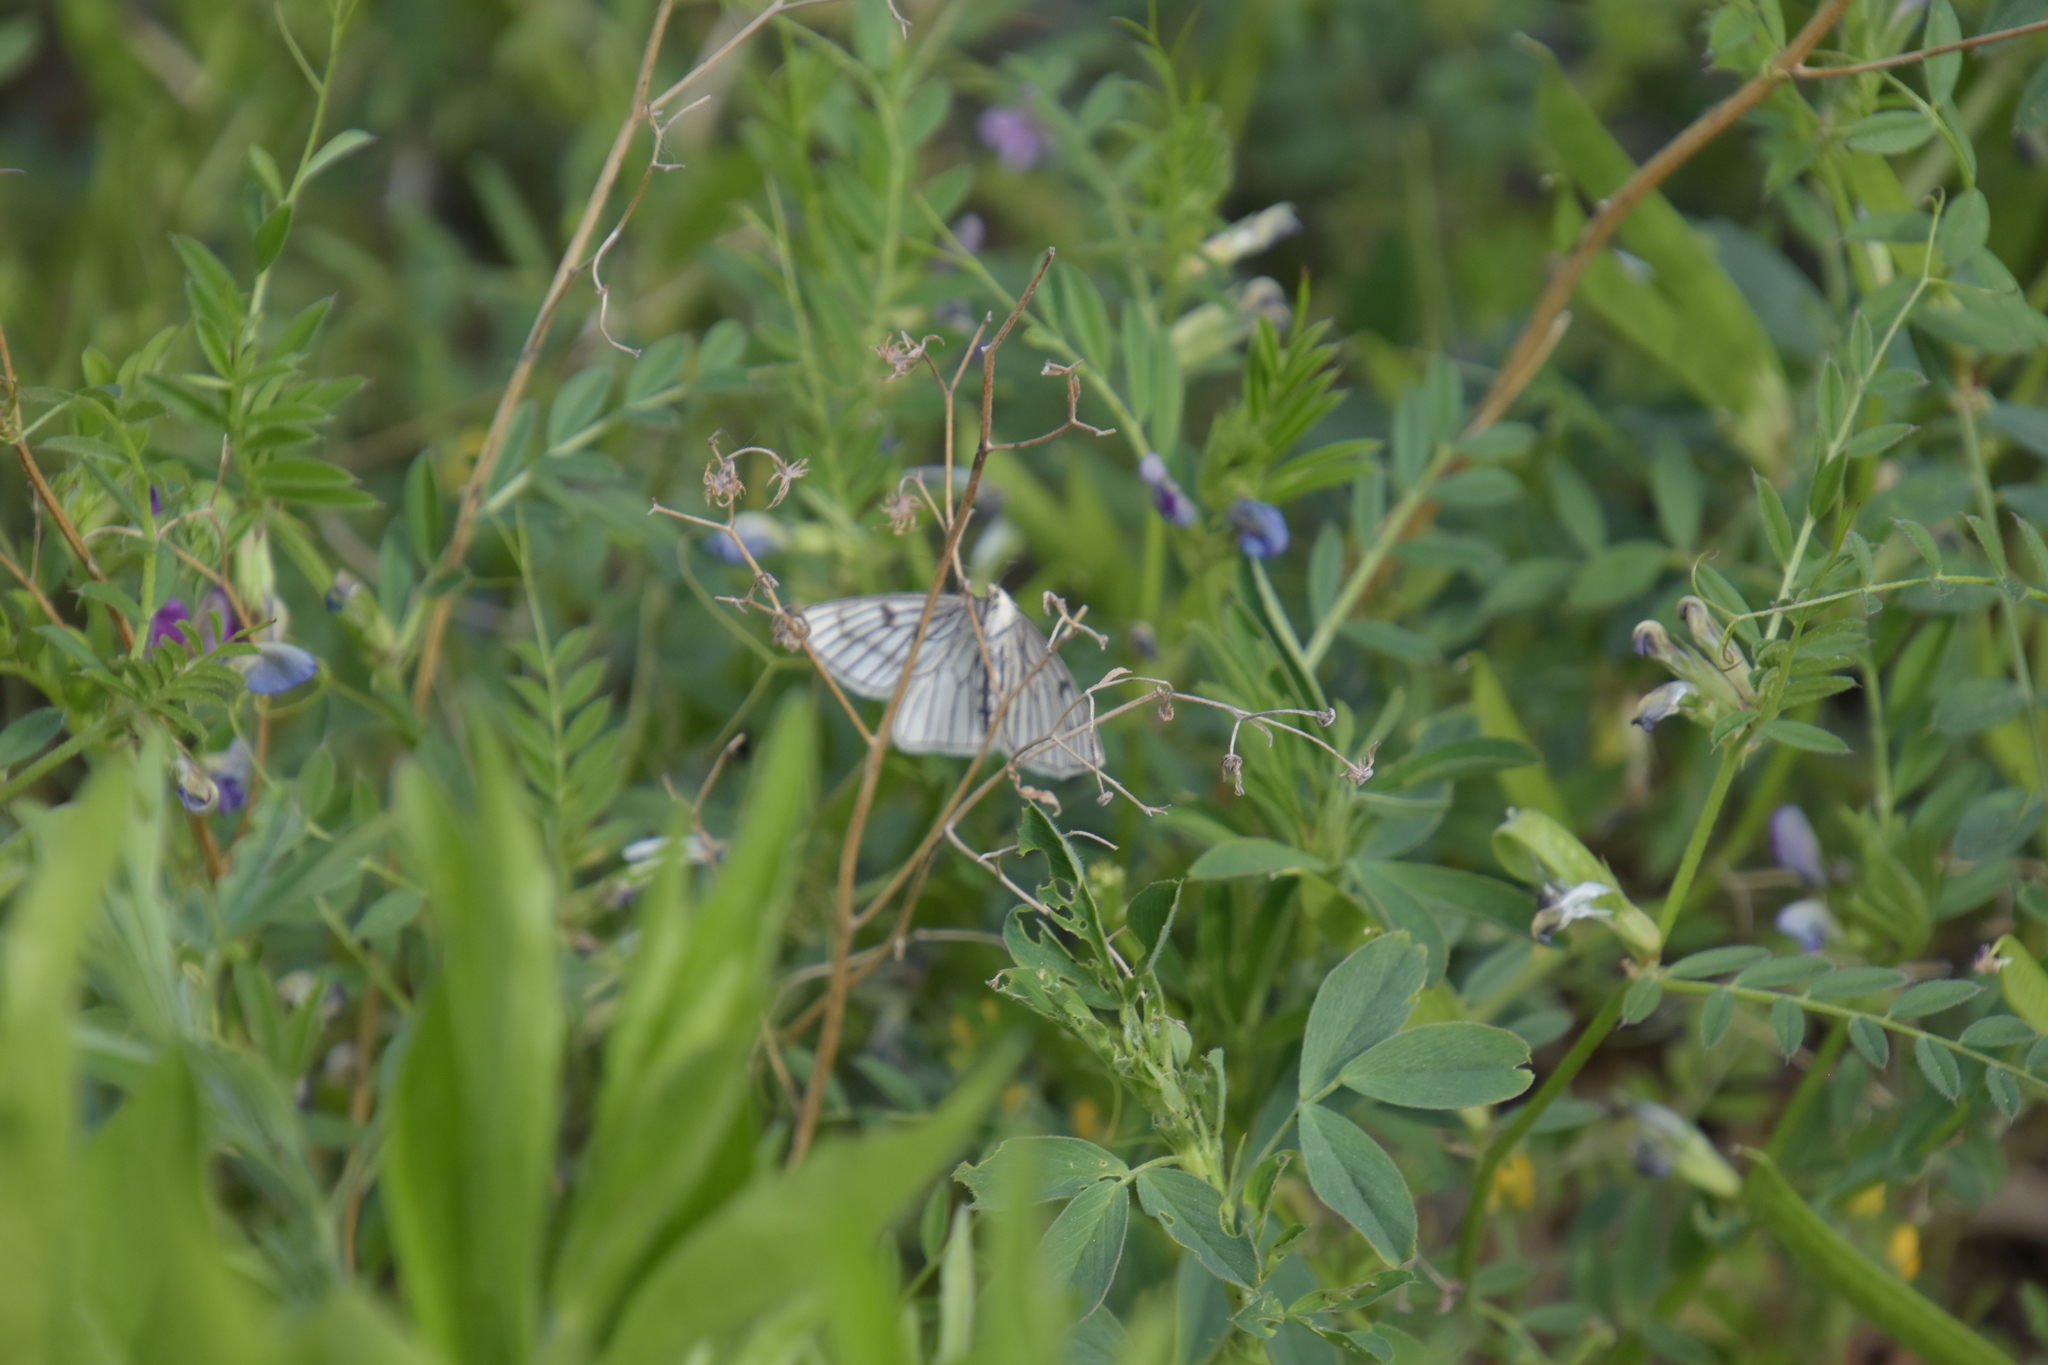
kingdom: Animalia
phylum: Arthropoda
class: Insecta
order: Lepidoptera
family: Geometridae
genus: Siona
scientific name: Siona lineata
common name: Black-veined moth
